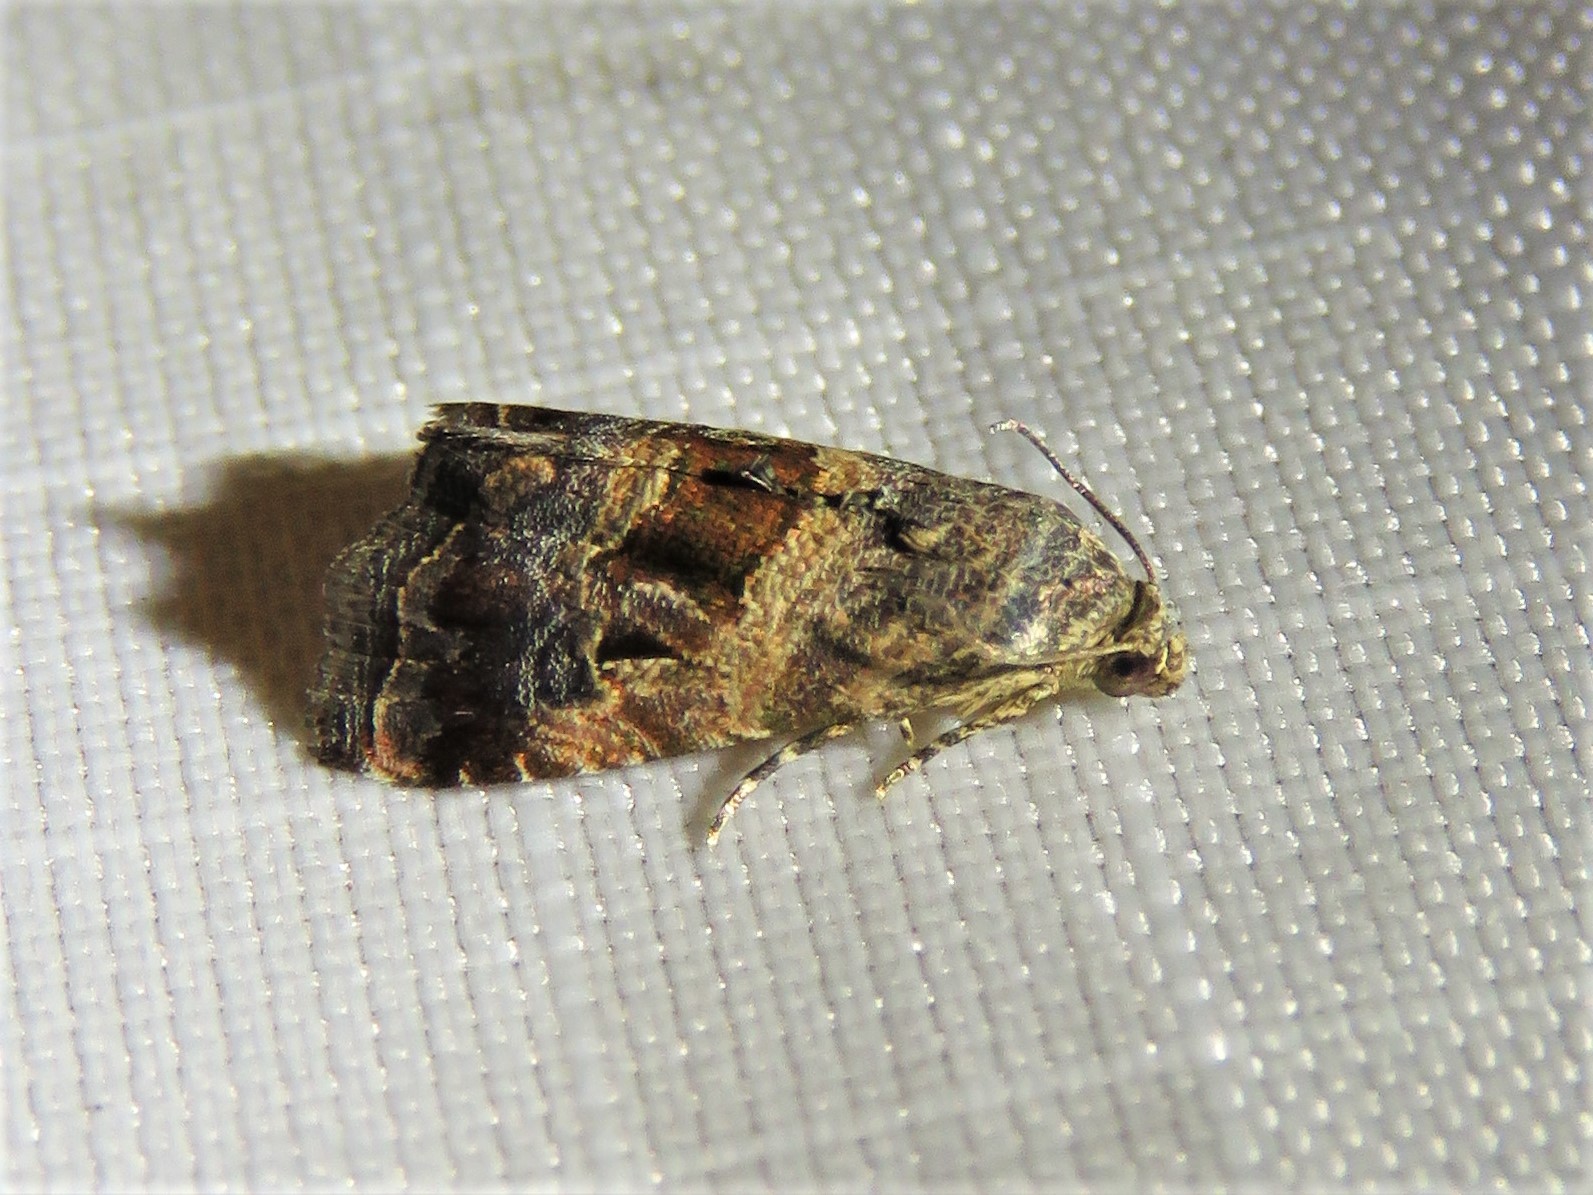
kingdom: Animalia
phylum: Arthropoda
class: Insecta
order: Lepidoptera
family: Noctuidae
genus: Tripudia
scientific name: Tripudia quadrifera
